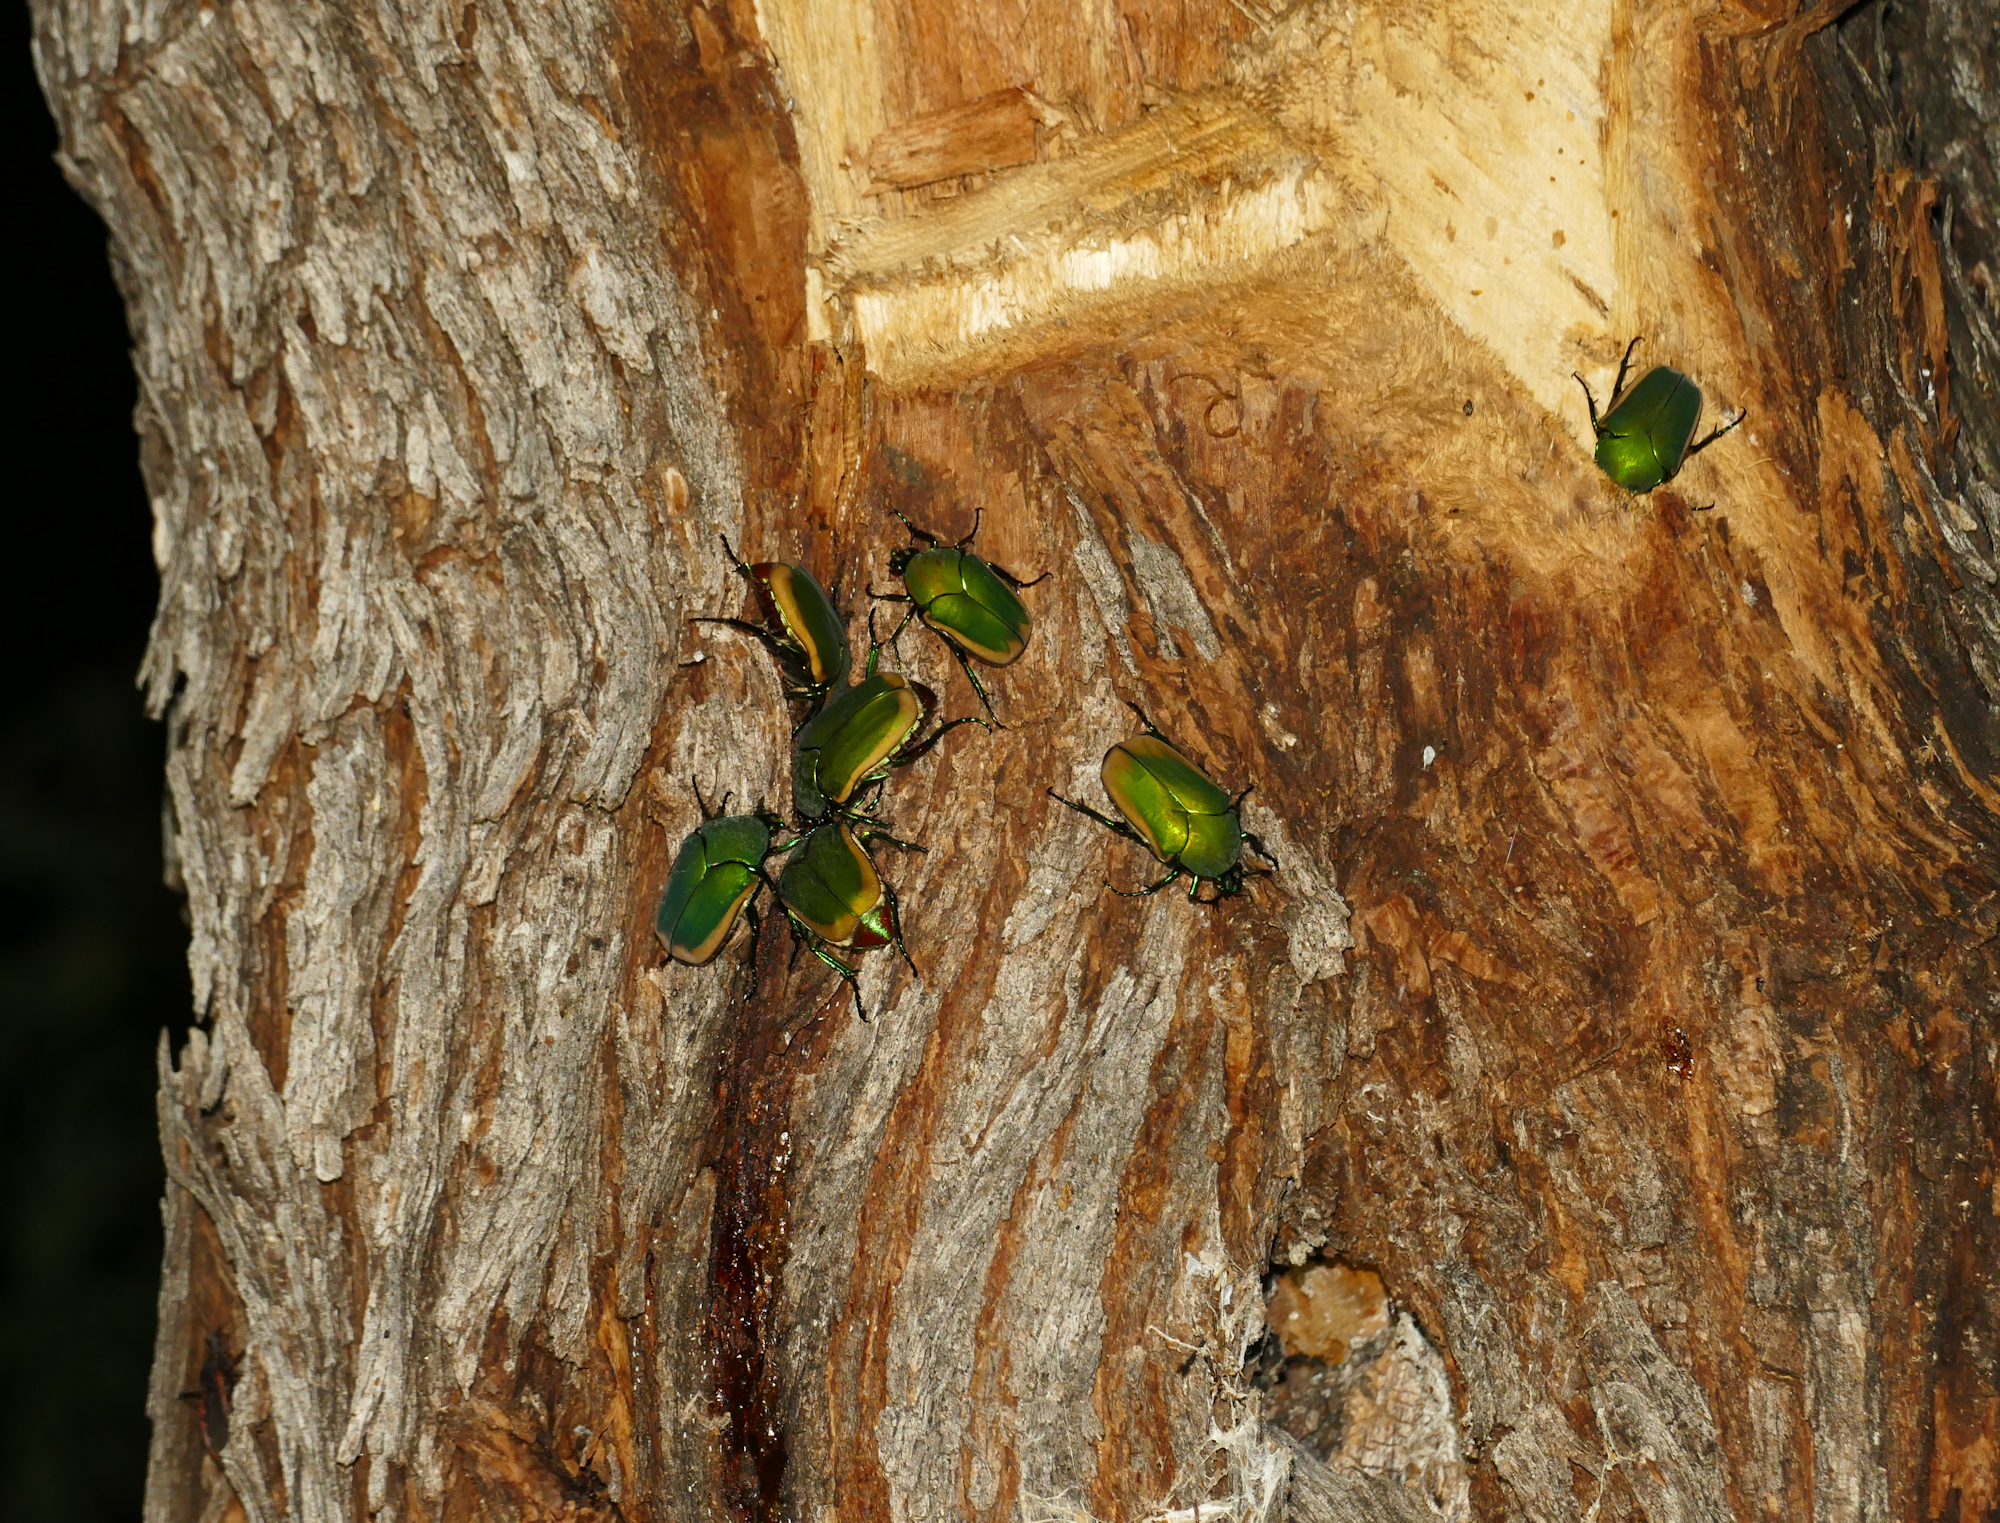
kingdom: Animalia
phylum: Arthropoda
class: Insecta
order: Coleoptera
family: Scarabaeidae
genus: Cotinis
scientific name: Cotinis mutabilis
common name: Figeater beetle
